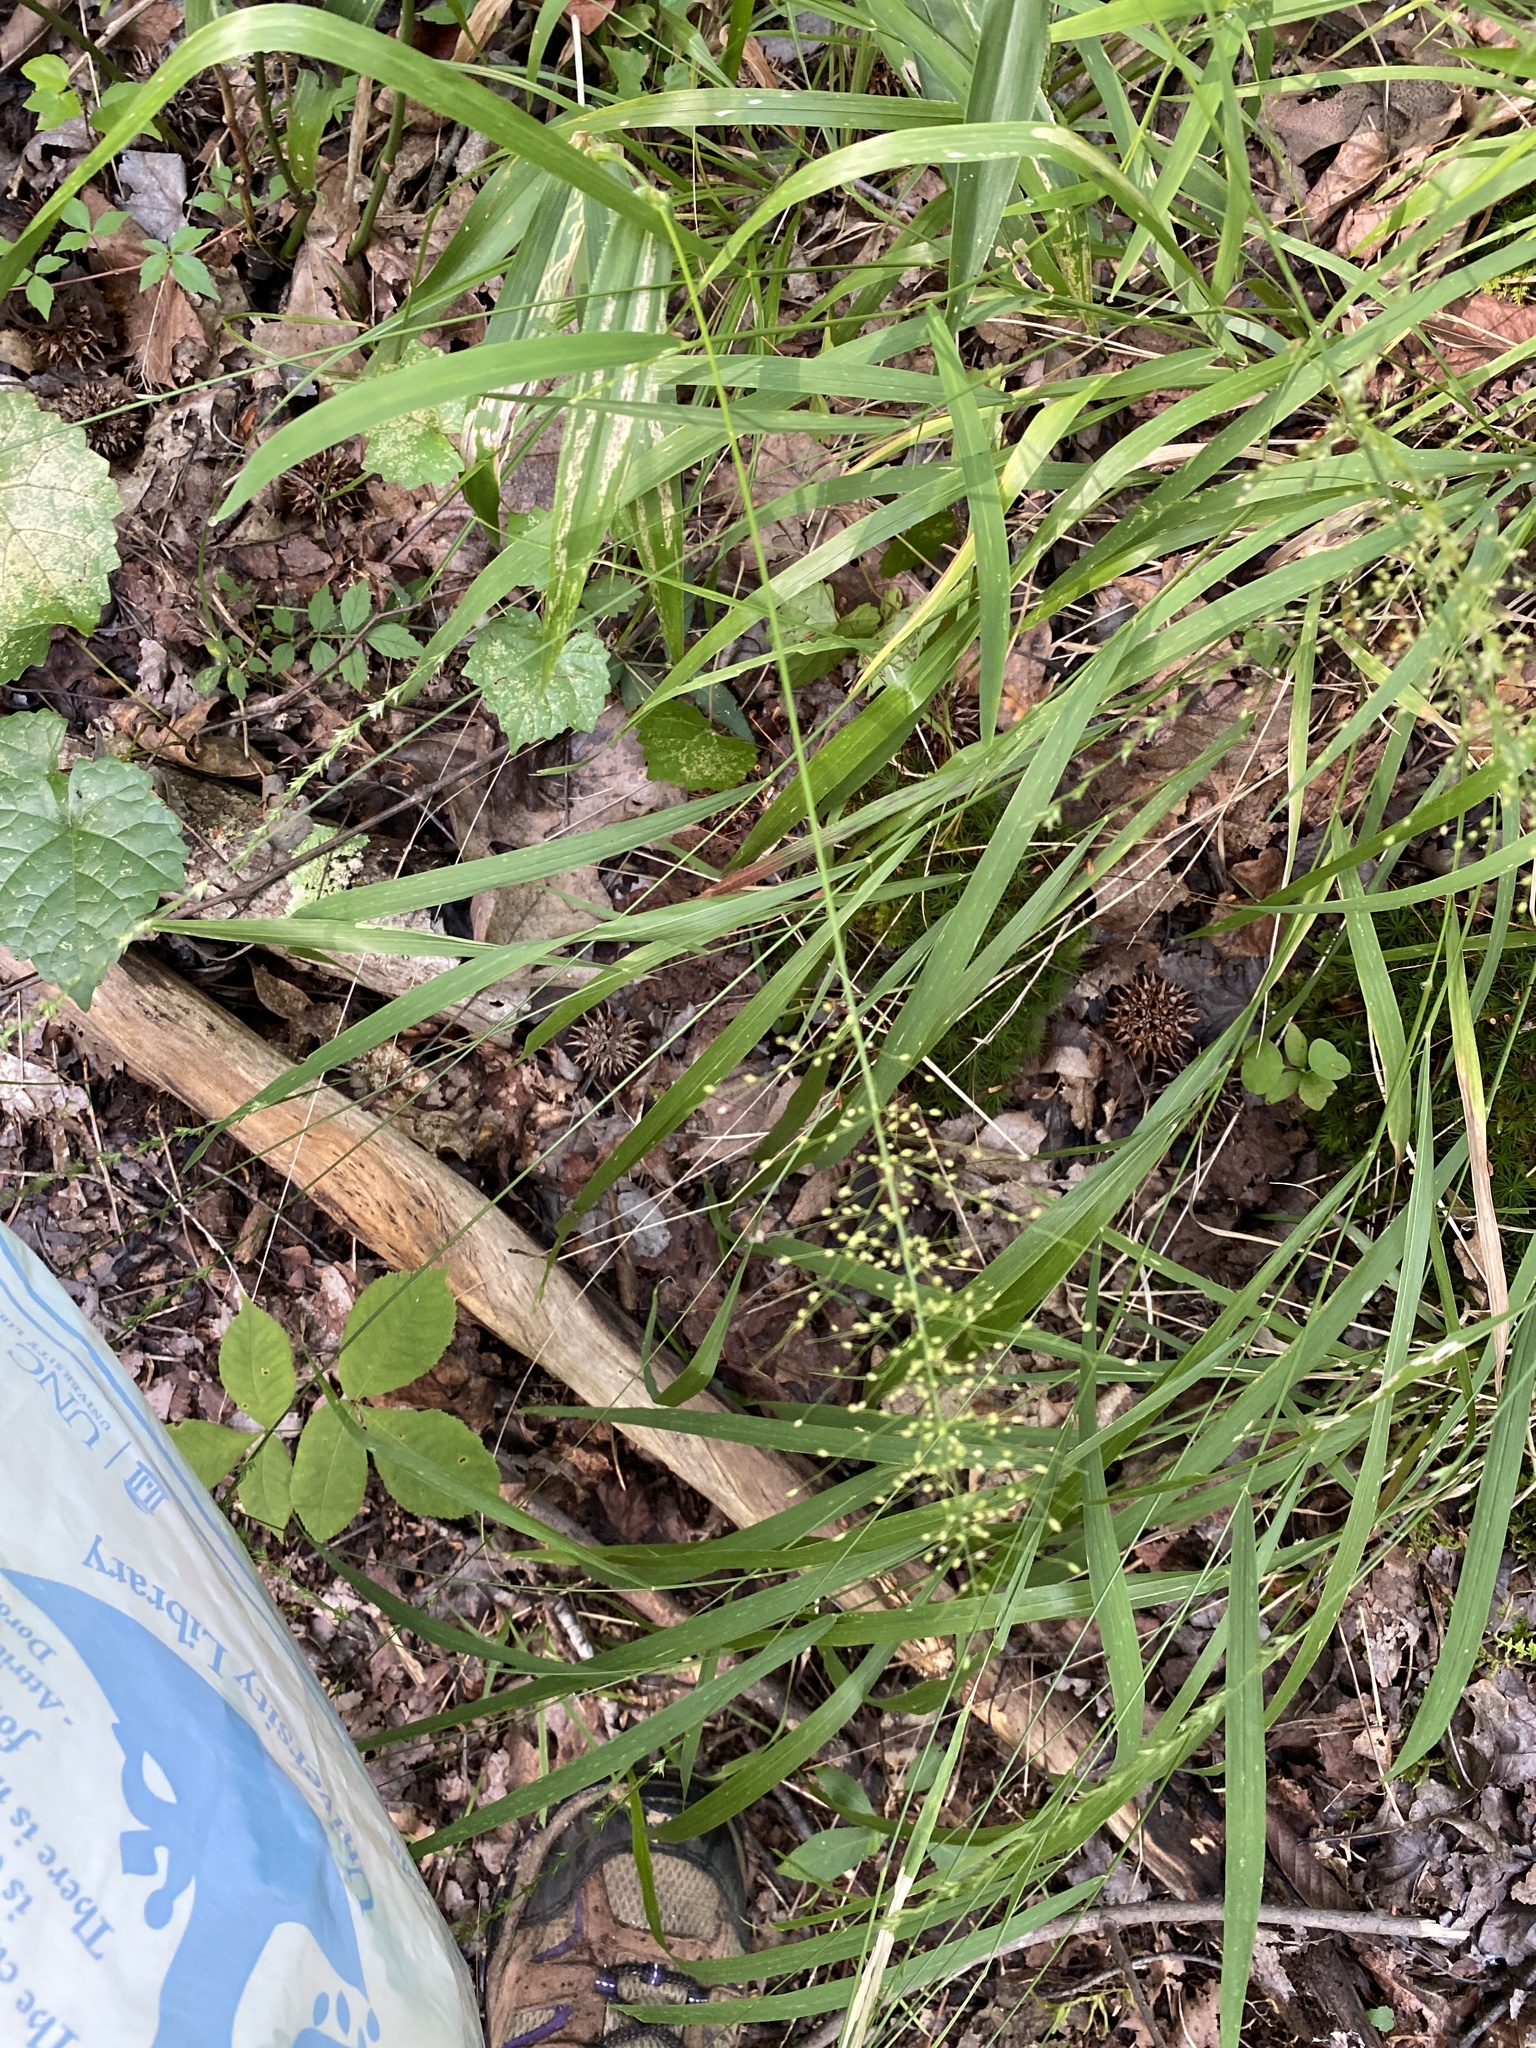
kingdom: Plantae
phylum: Tracheophyta
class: Liliopsida
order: Poales
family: Poaceae
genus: Dichanthelium
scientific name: Dichanthelium polyanthes
